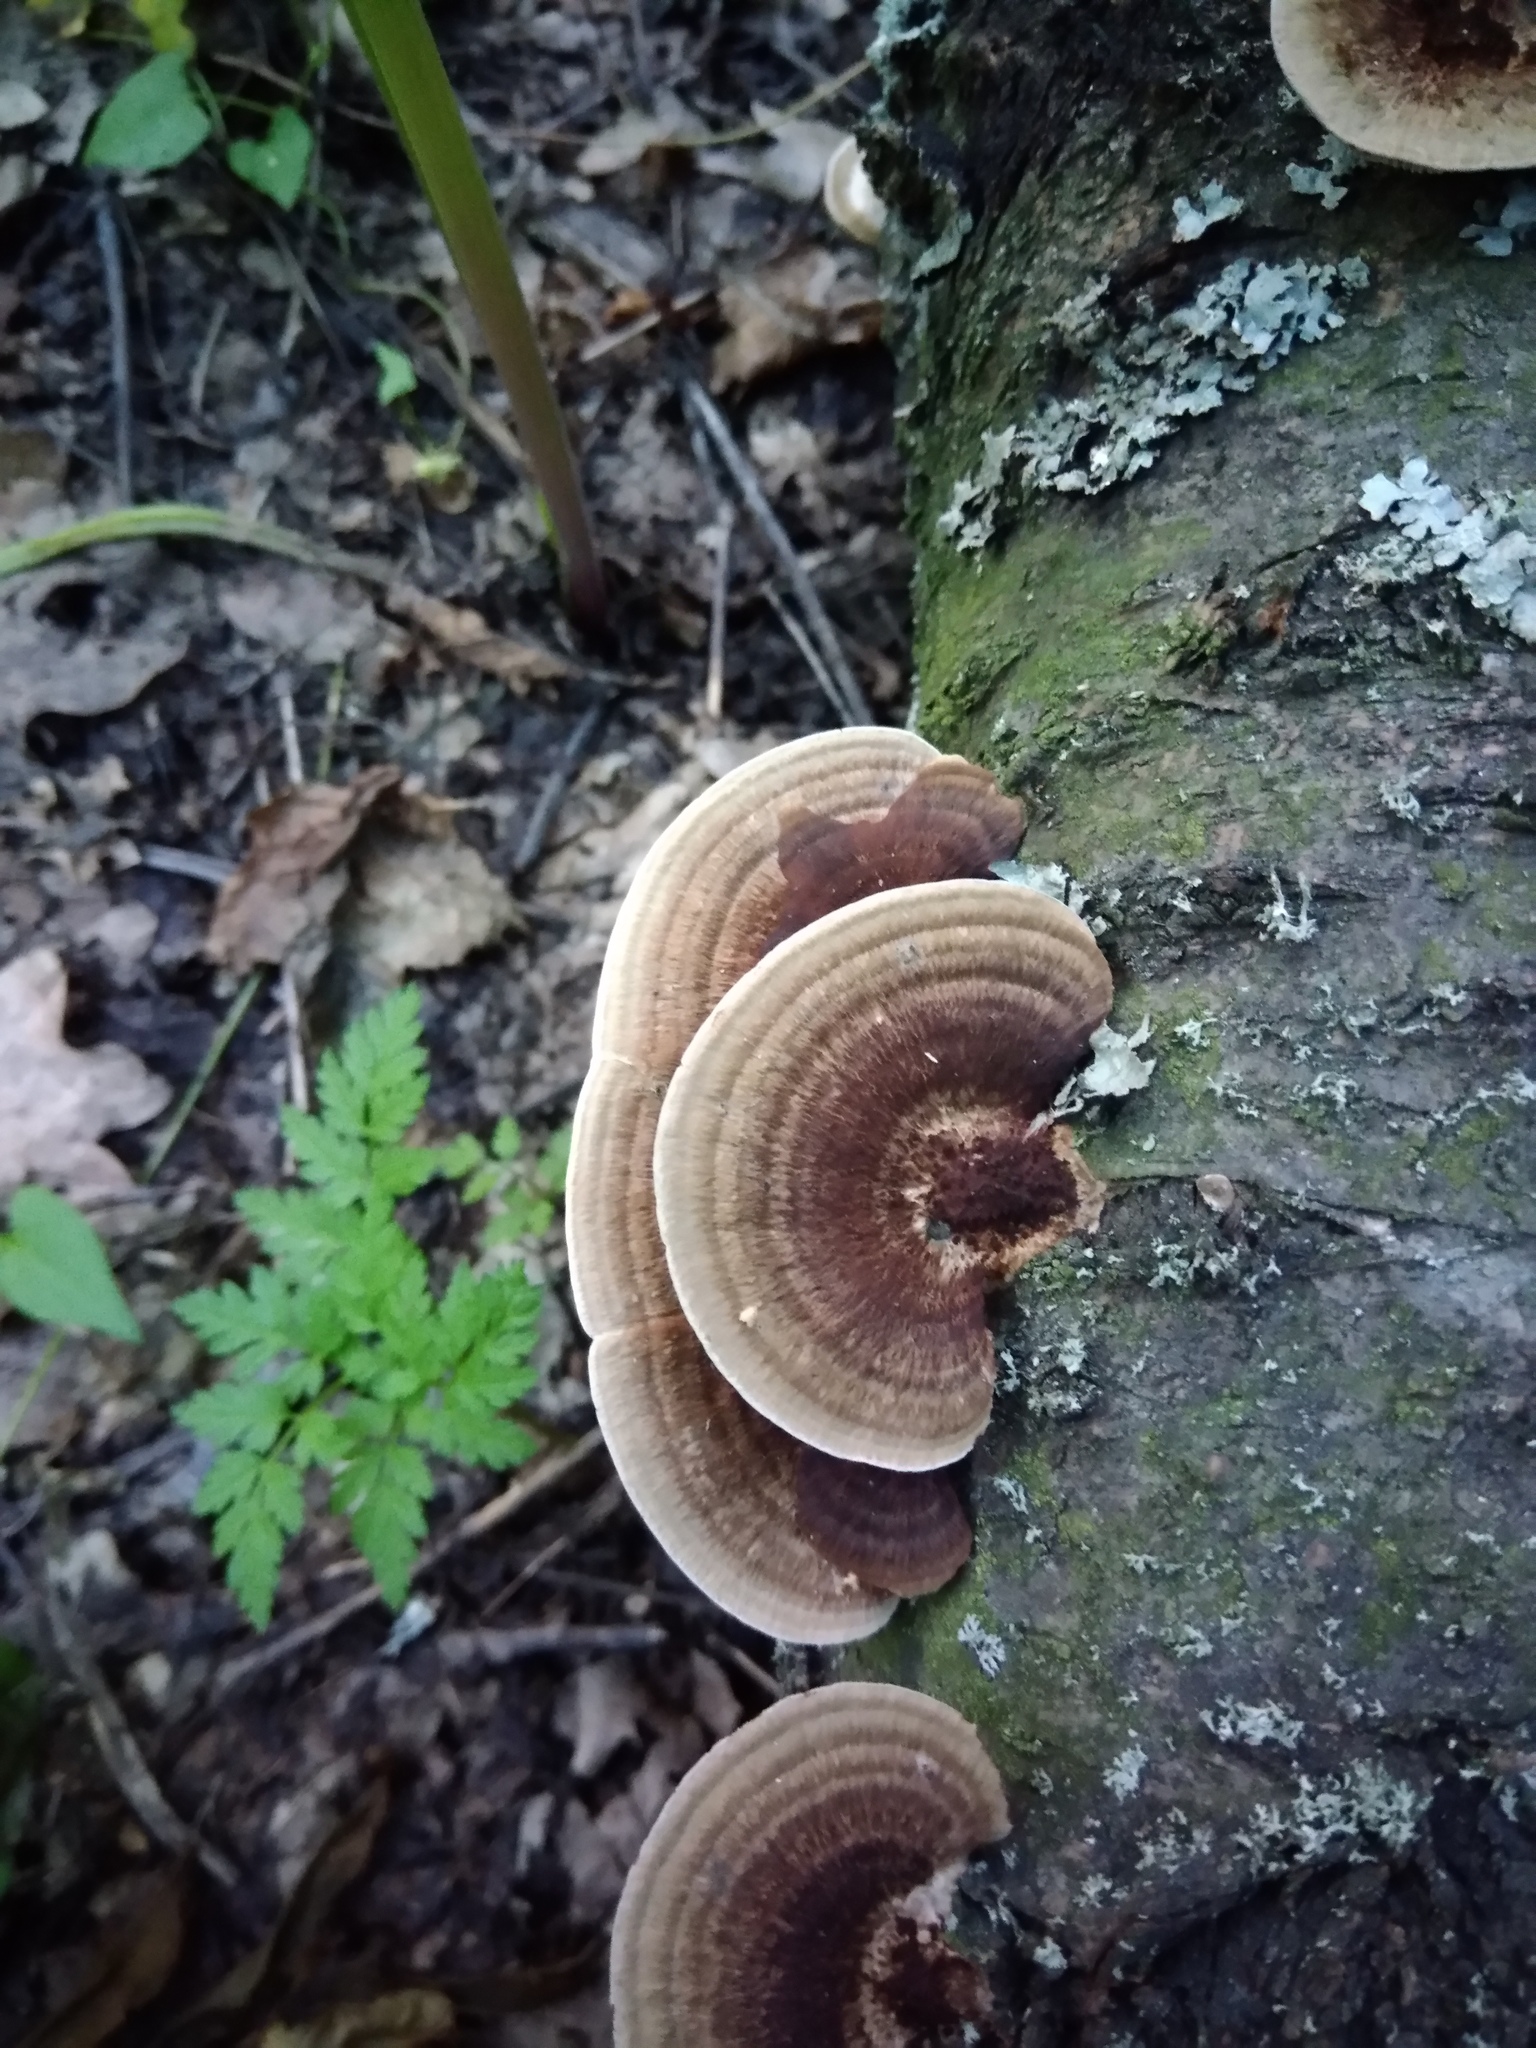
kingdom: Fungi
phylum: Basidiomycota
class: Agaricomycetes
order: Polyporales
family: Polyporaceae
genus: Daedaleopsis
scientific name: Daedaleopsis confragosa
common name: Blushing bracket
